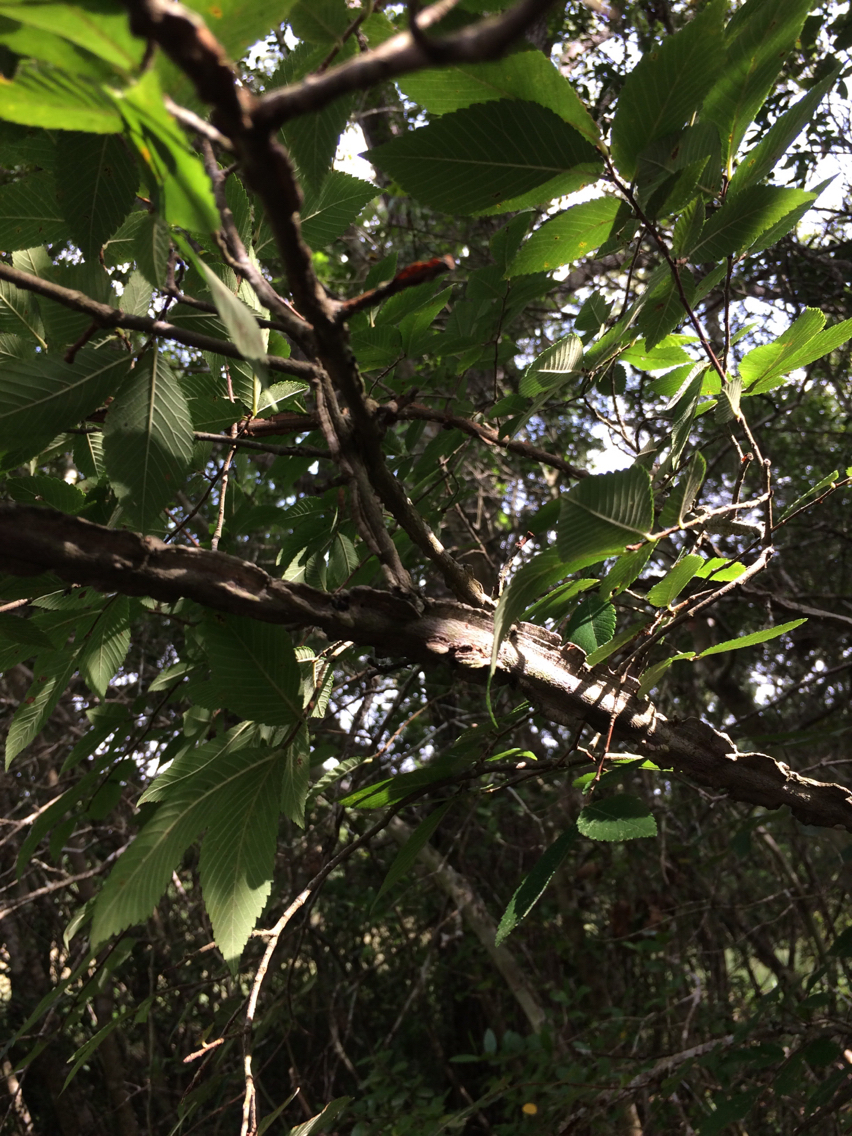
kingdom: Plantae
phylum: Tracheophyta
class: Magnoliopsida
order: Rosales
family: Ulmaceae
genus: Ulmus
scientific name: Ulmus alata
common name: Winged elm
